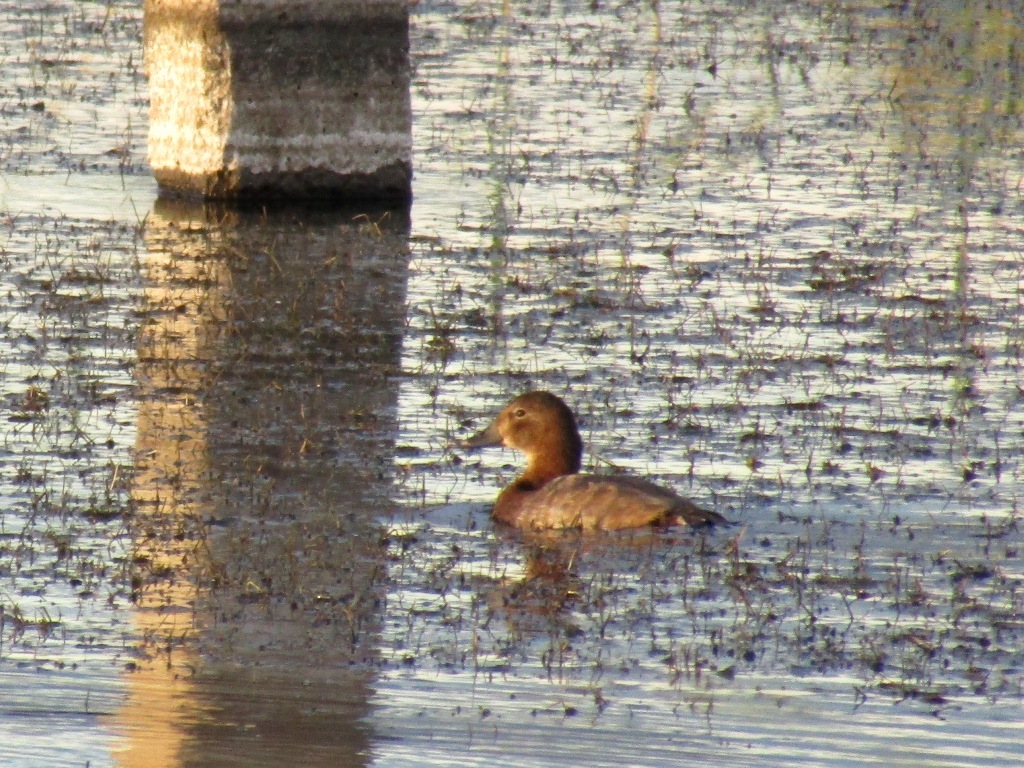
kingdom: Animalia
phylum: Chordata
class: Aves
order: Anseriformes
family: Anatidae
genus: Aythya
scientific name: Aythya ferina
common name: Common pochard
